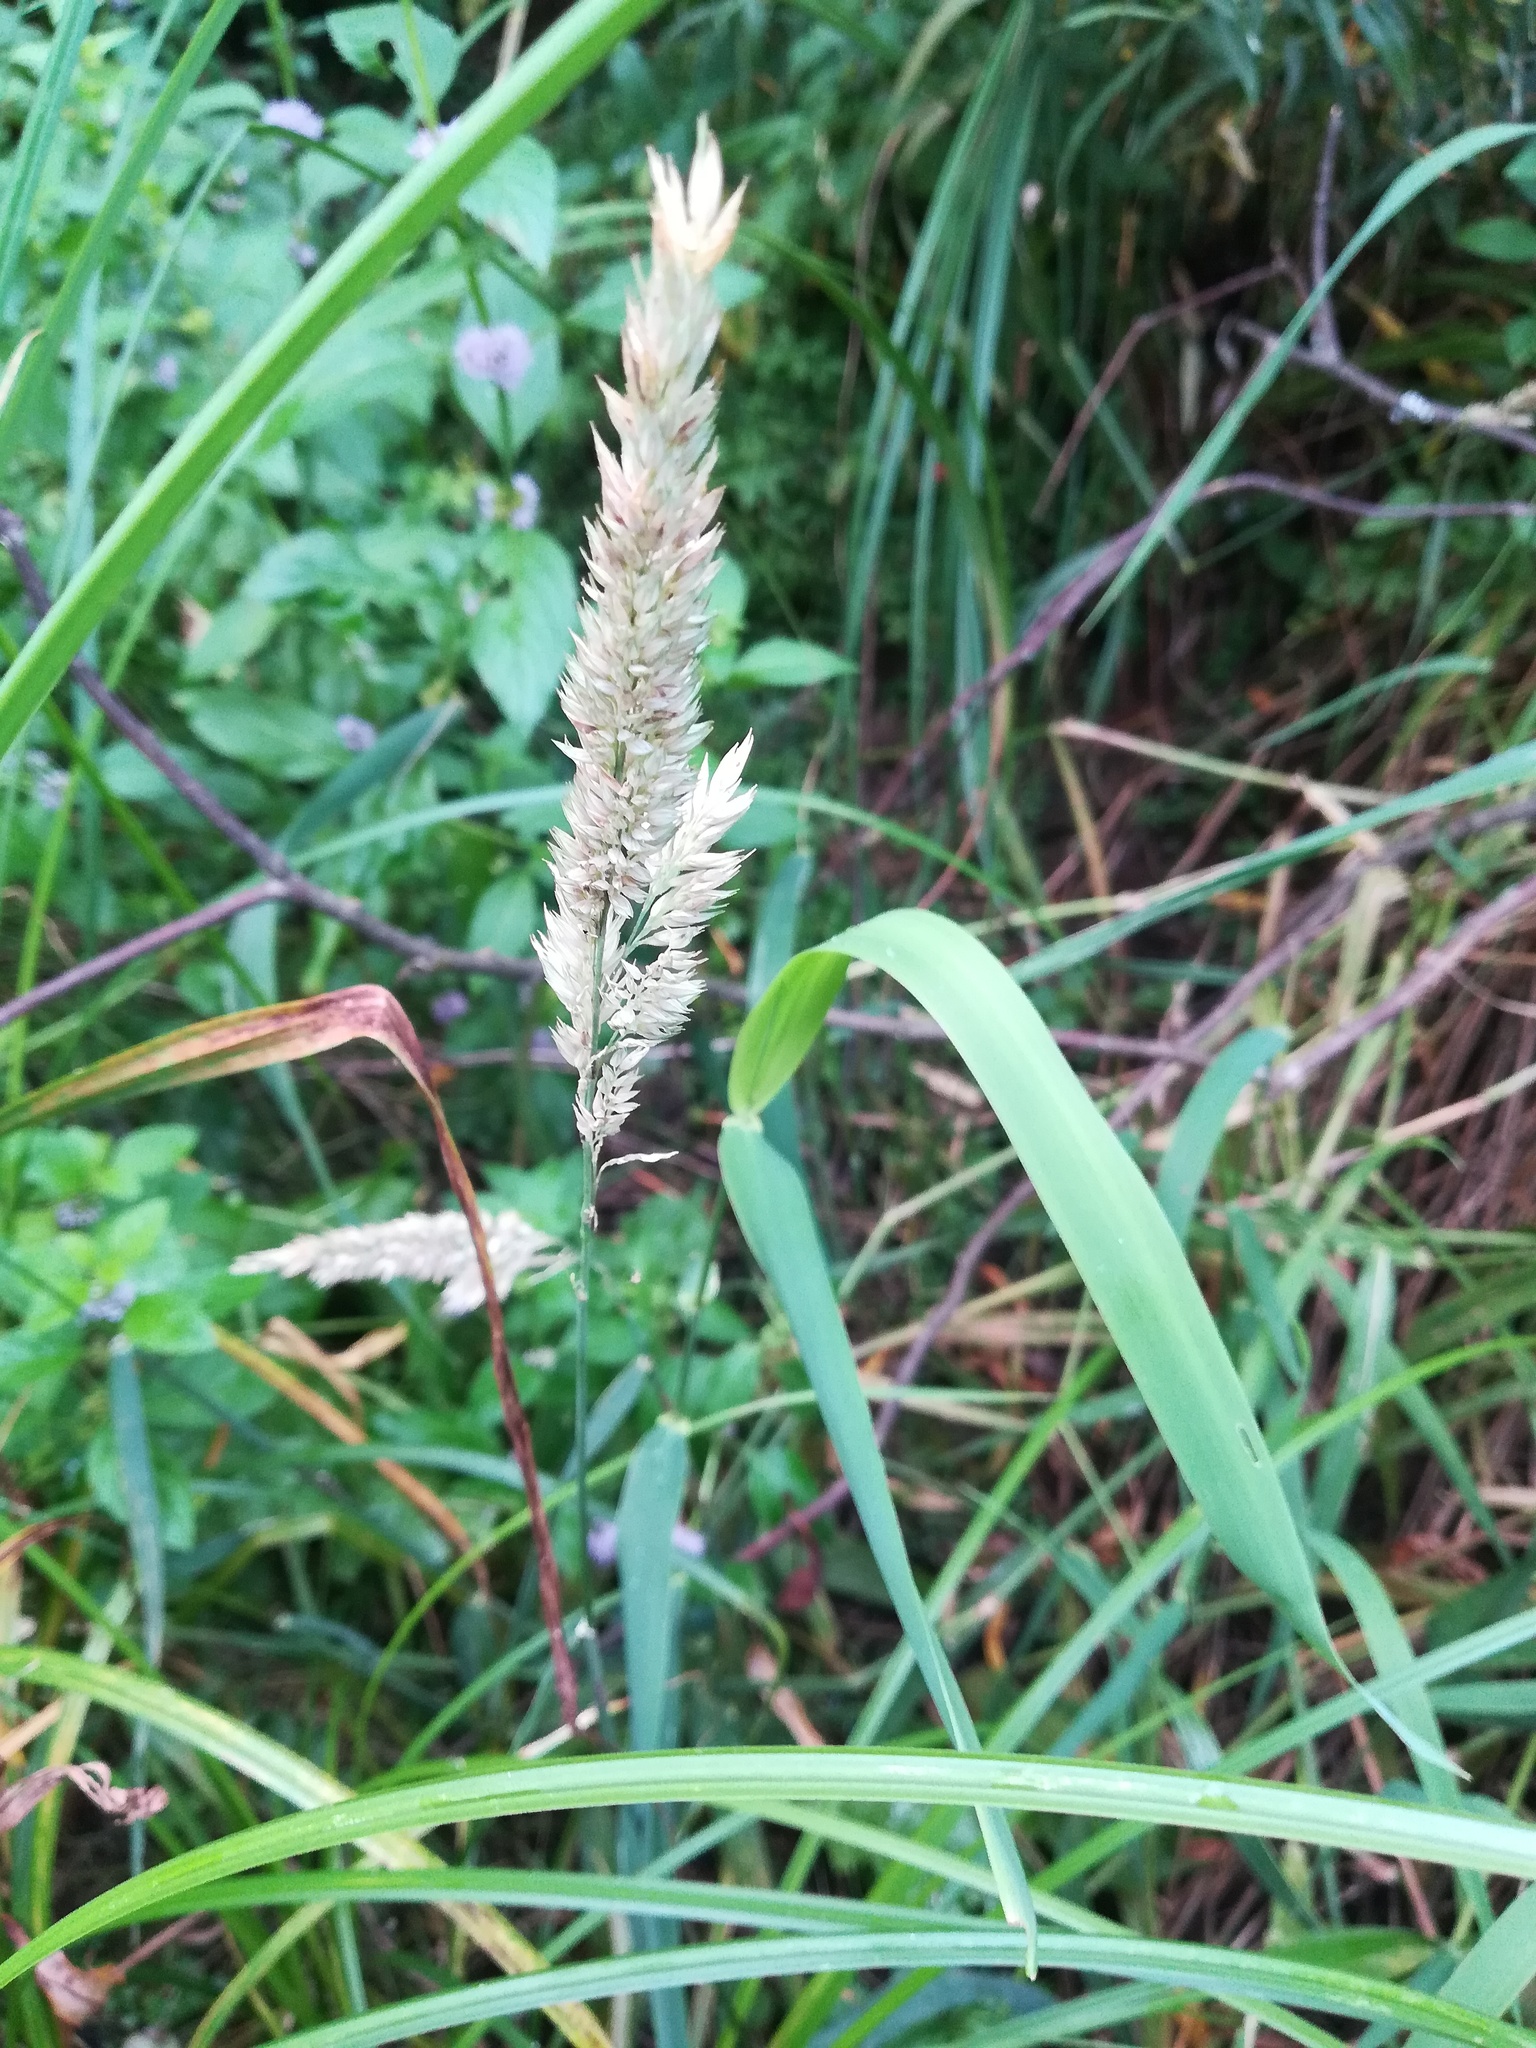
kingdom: Plantae
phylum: Tracheophyta
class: Liliopsida
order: Poales
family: Poaceae
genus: Phalaris
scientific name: Phalaris arundinacea
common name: Reed canary-grass
